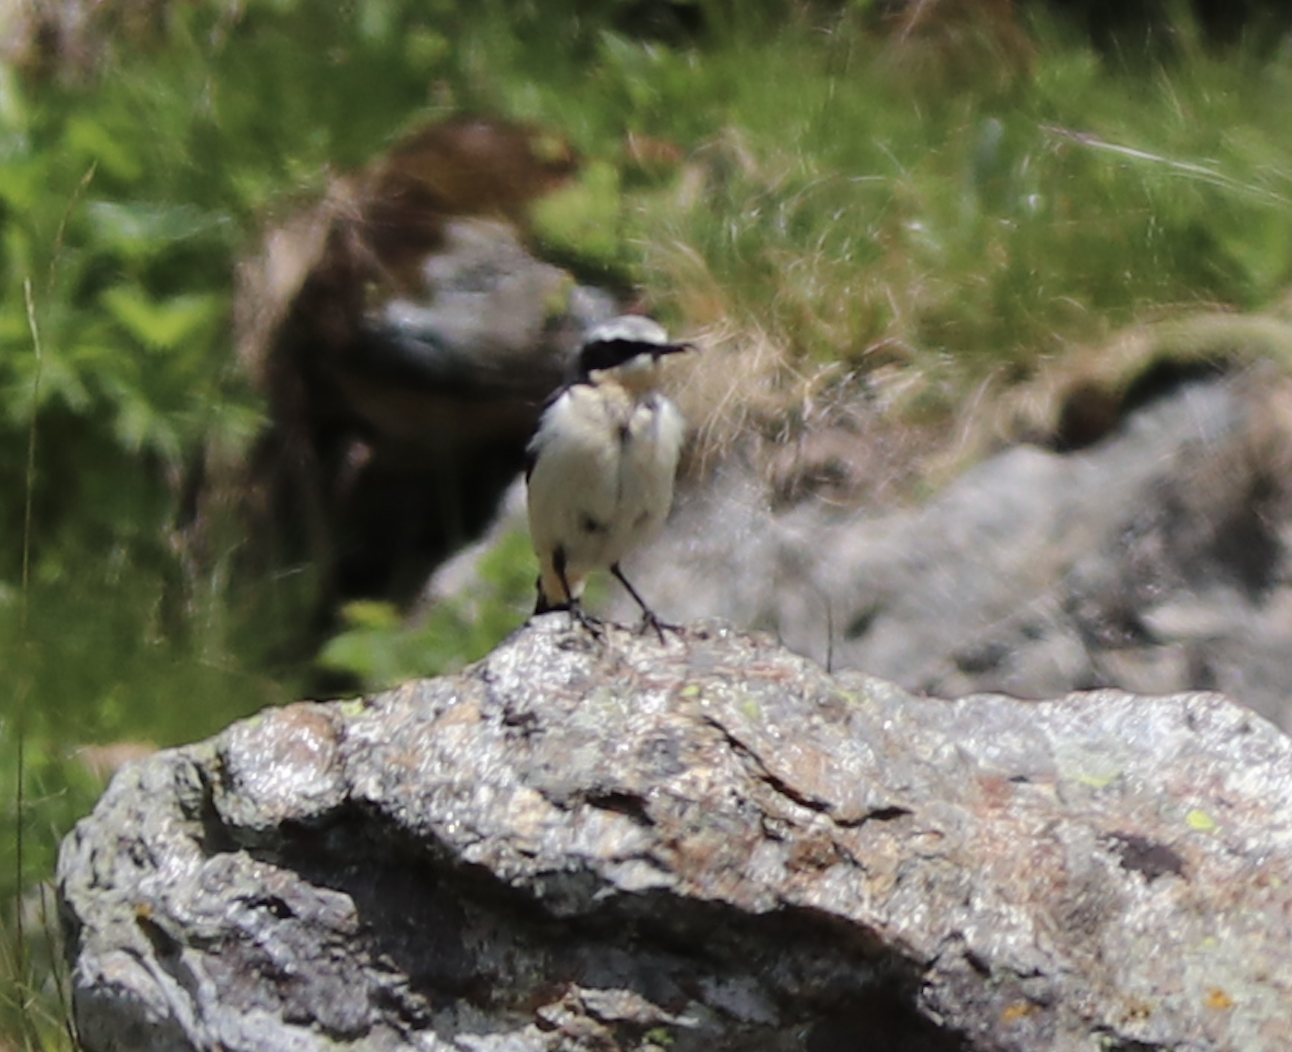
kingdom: Animalia
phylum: Chordata
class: Aves
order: Passeriformes
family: Muscicapidae
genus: Oenanthe
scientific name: Oenanthe oenanthe
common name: Northern wheatear
